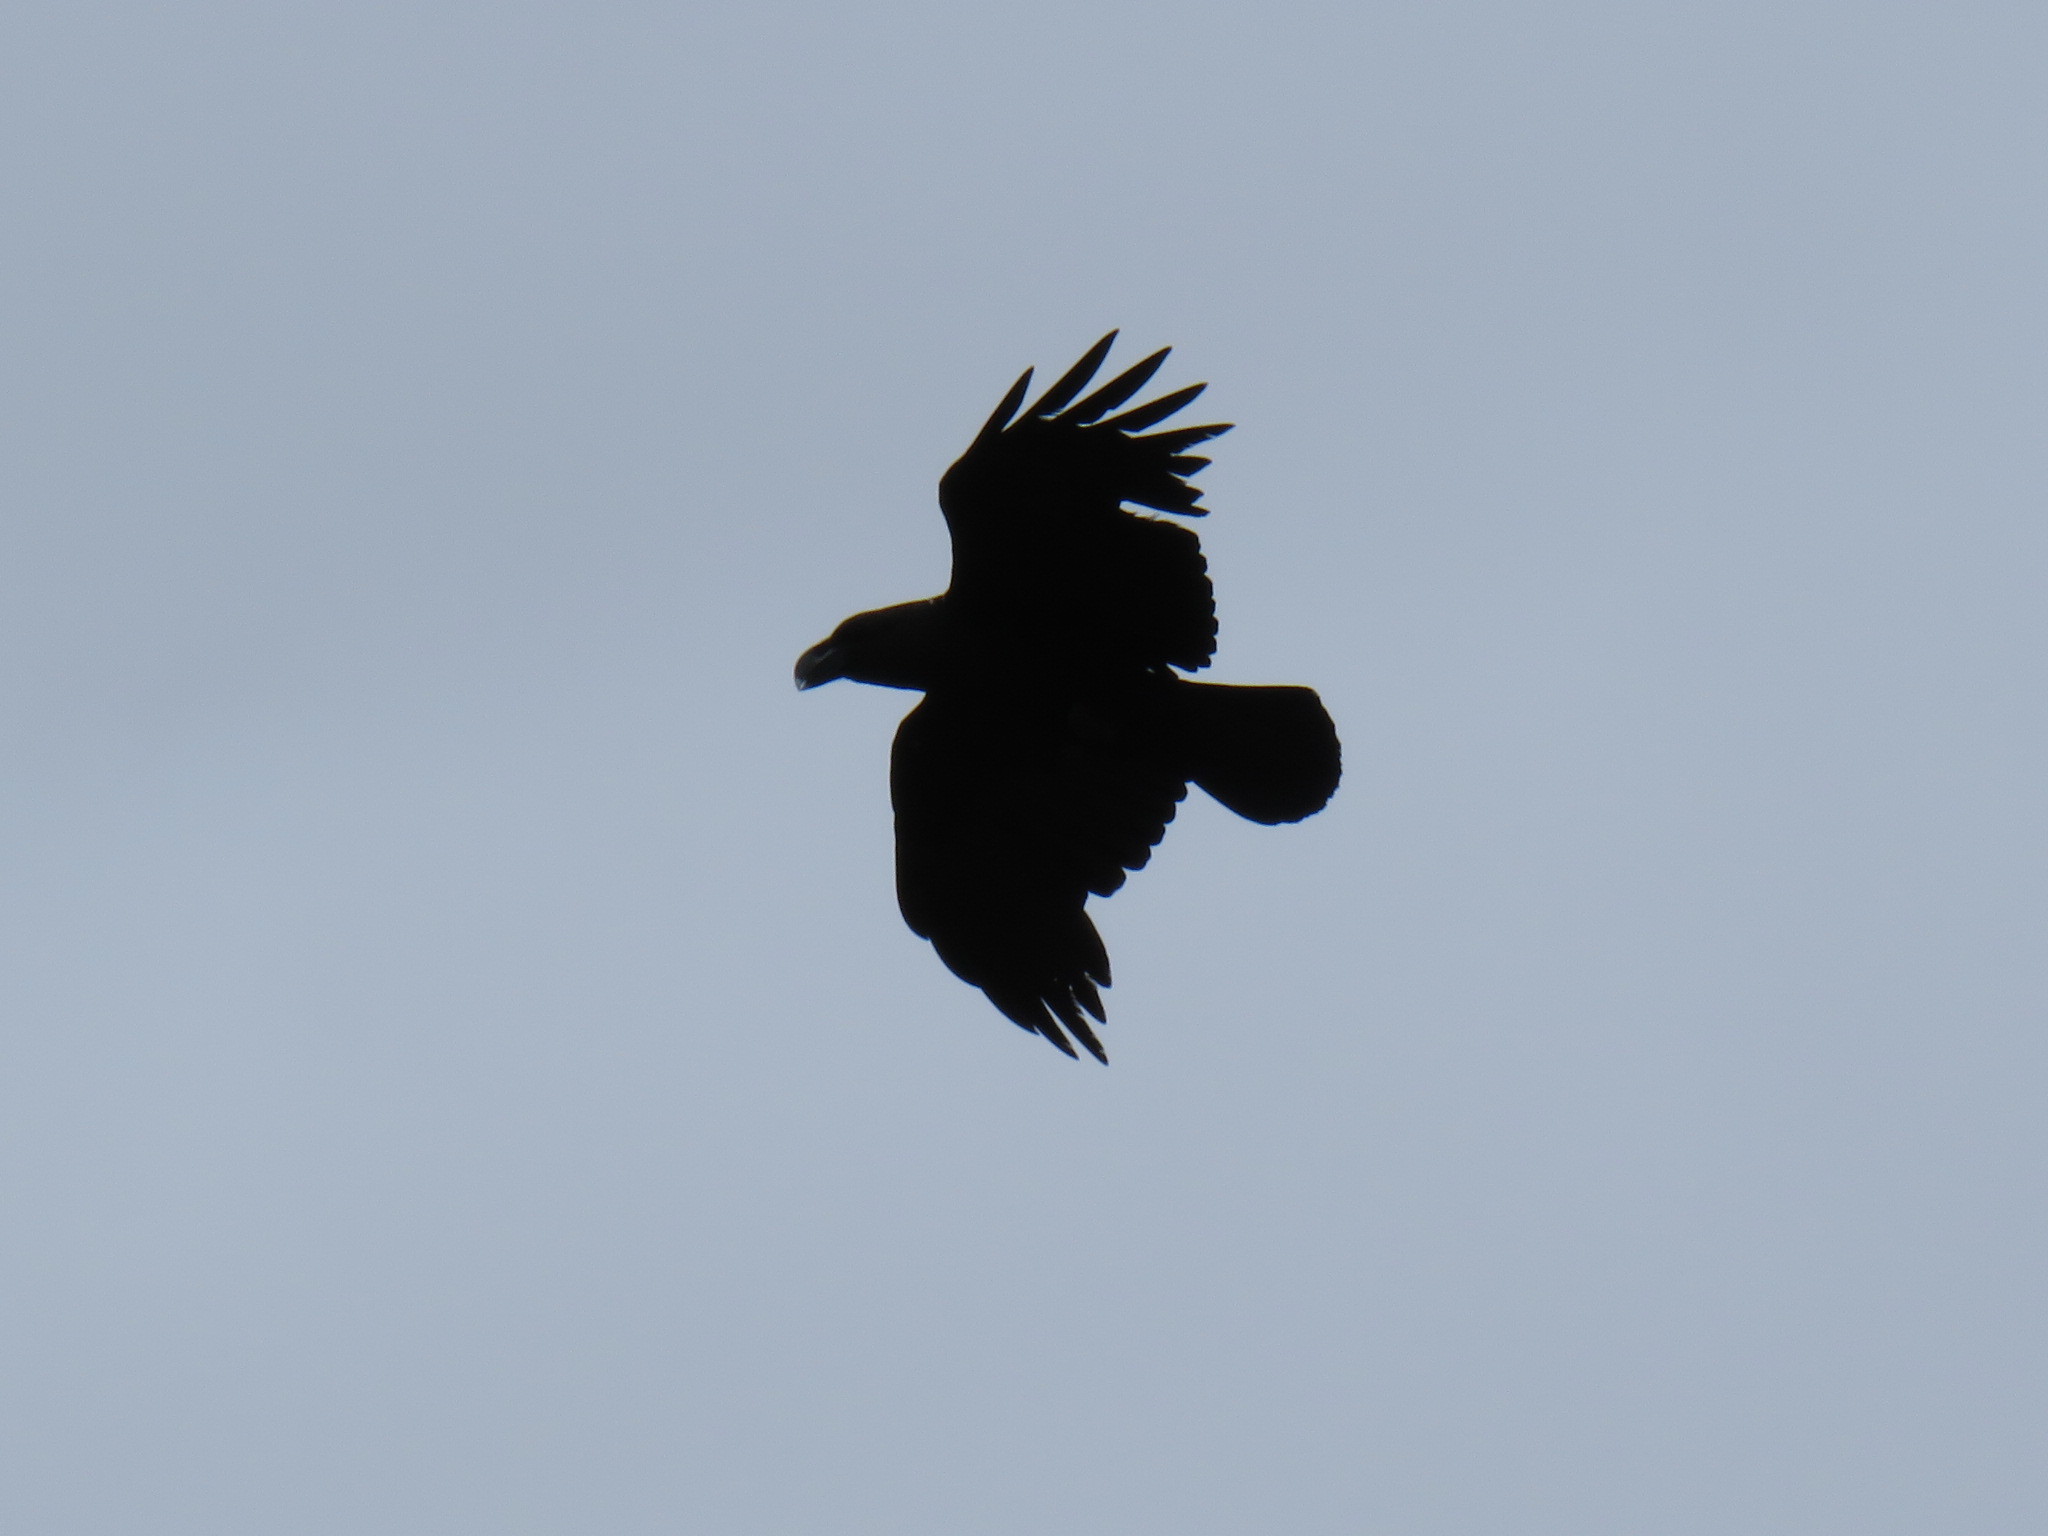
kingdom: Animalia
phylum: Chordata
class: Aves
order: Passeriformes
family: Corvidae
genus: Corvus
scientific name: Corvus albicollis
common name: White-necked raven
